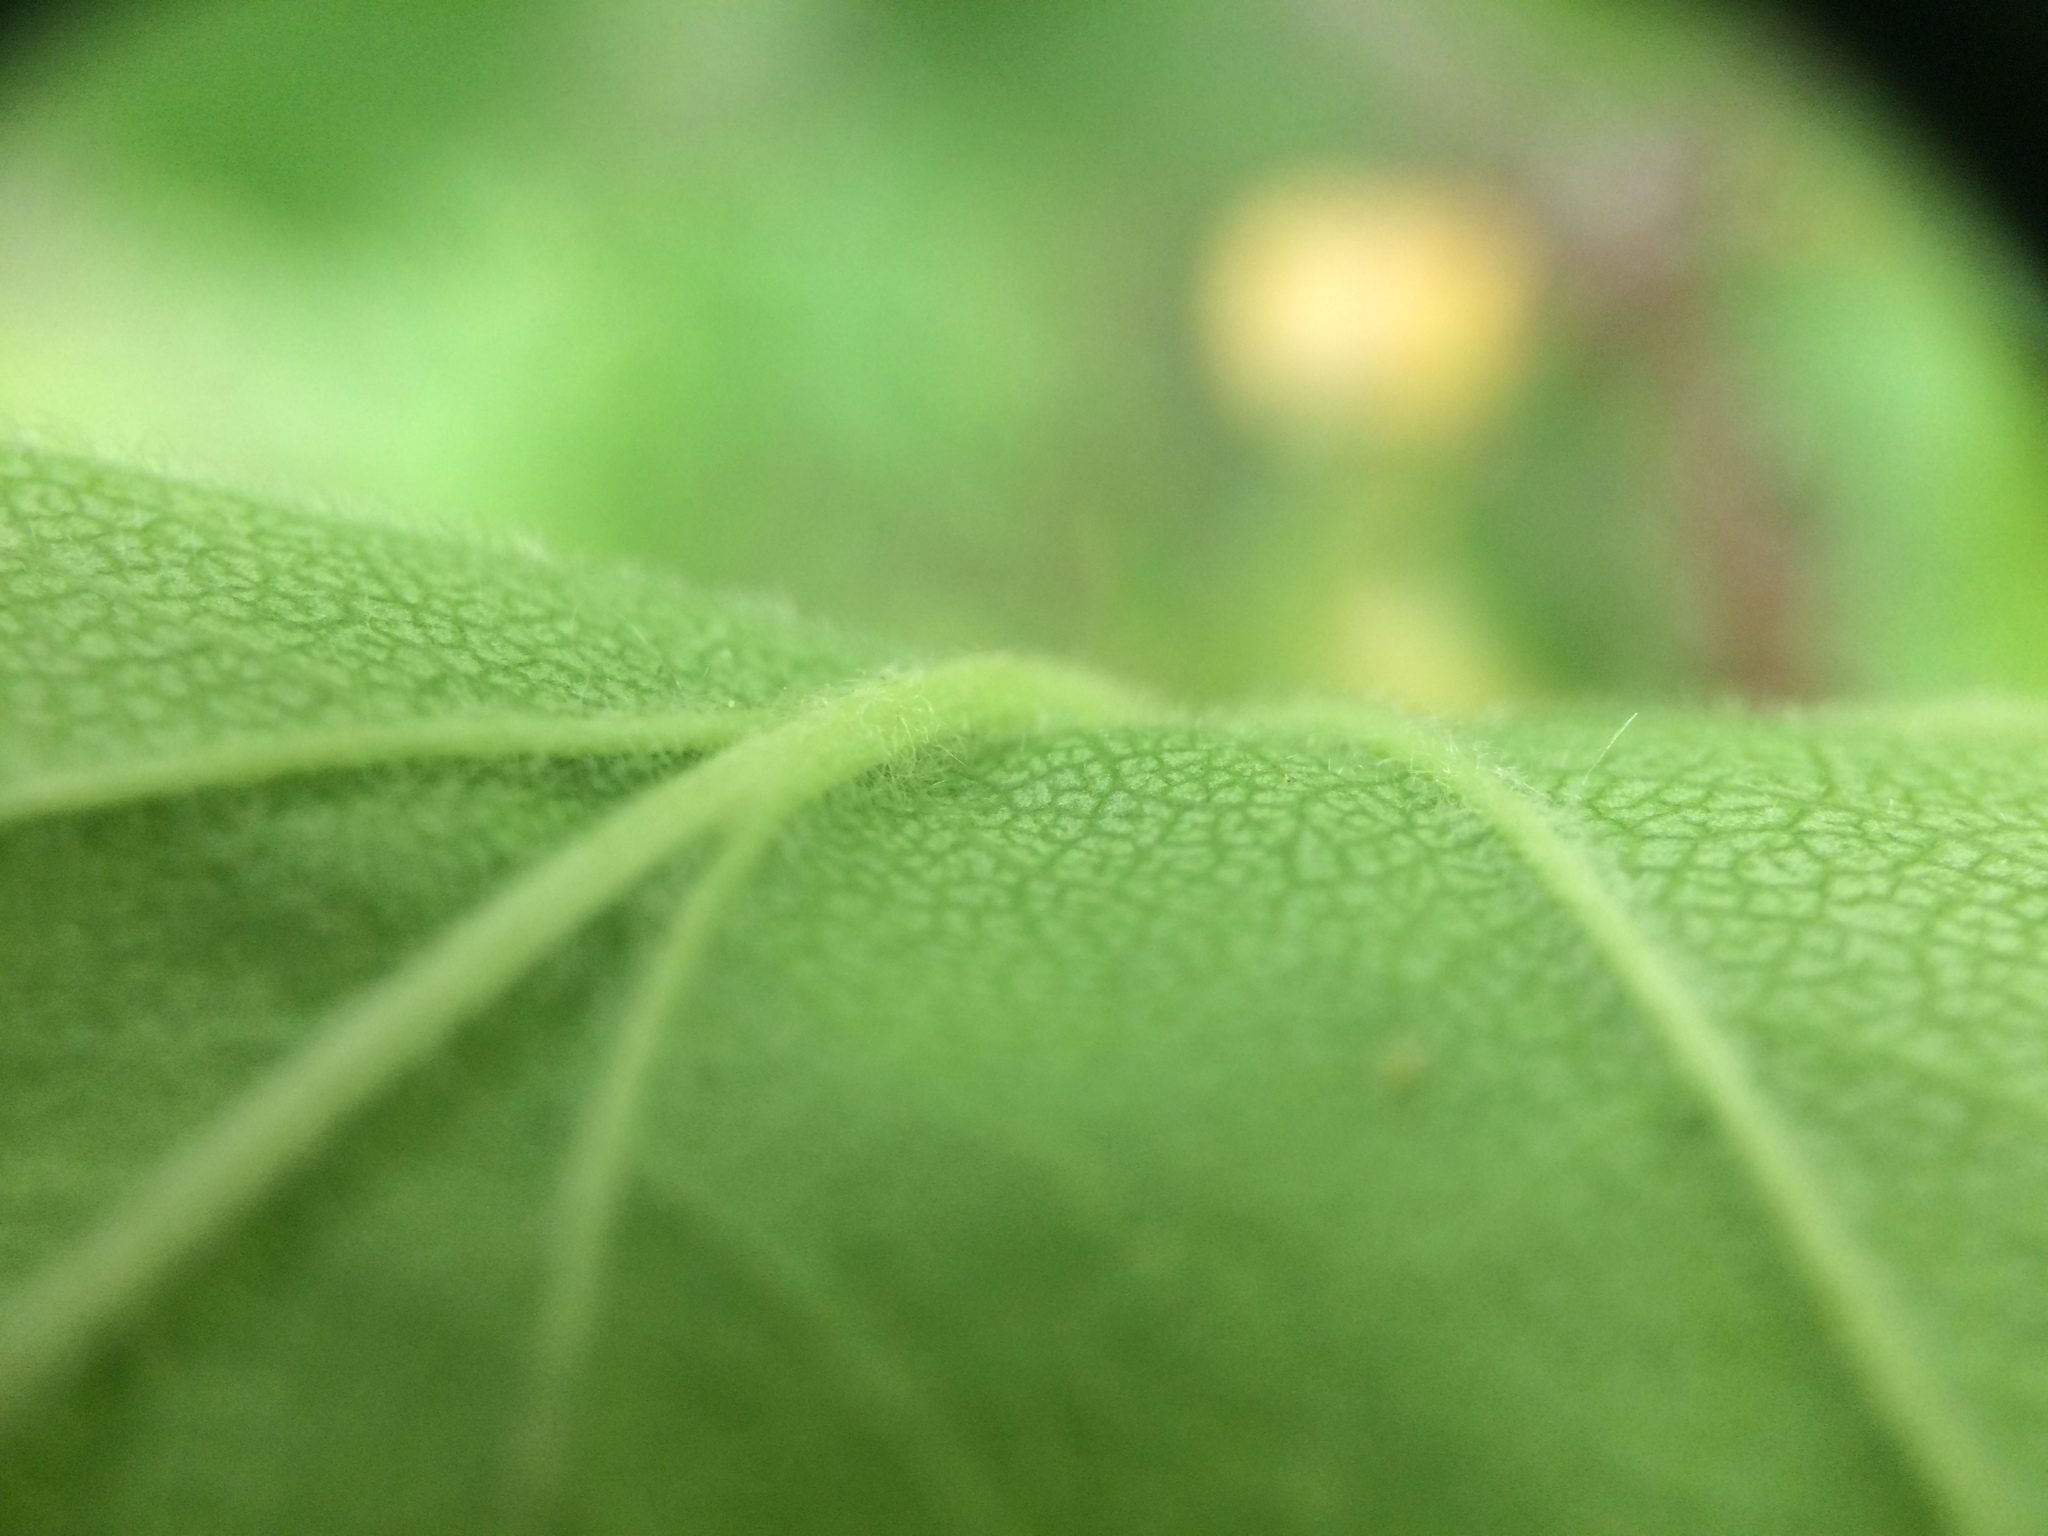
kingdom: Plantae
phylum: Tracheophyta
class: Magnoliopsida
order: Rosales
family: Rosaceae
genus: Crataegus
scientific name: Crataegus submollis
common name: Hairy cockspurthorn
